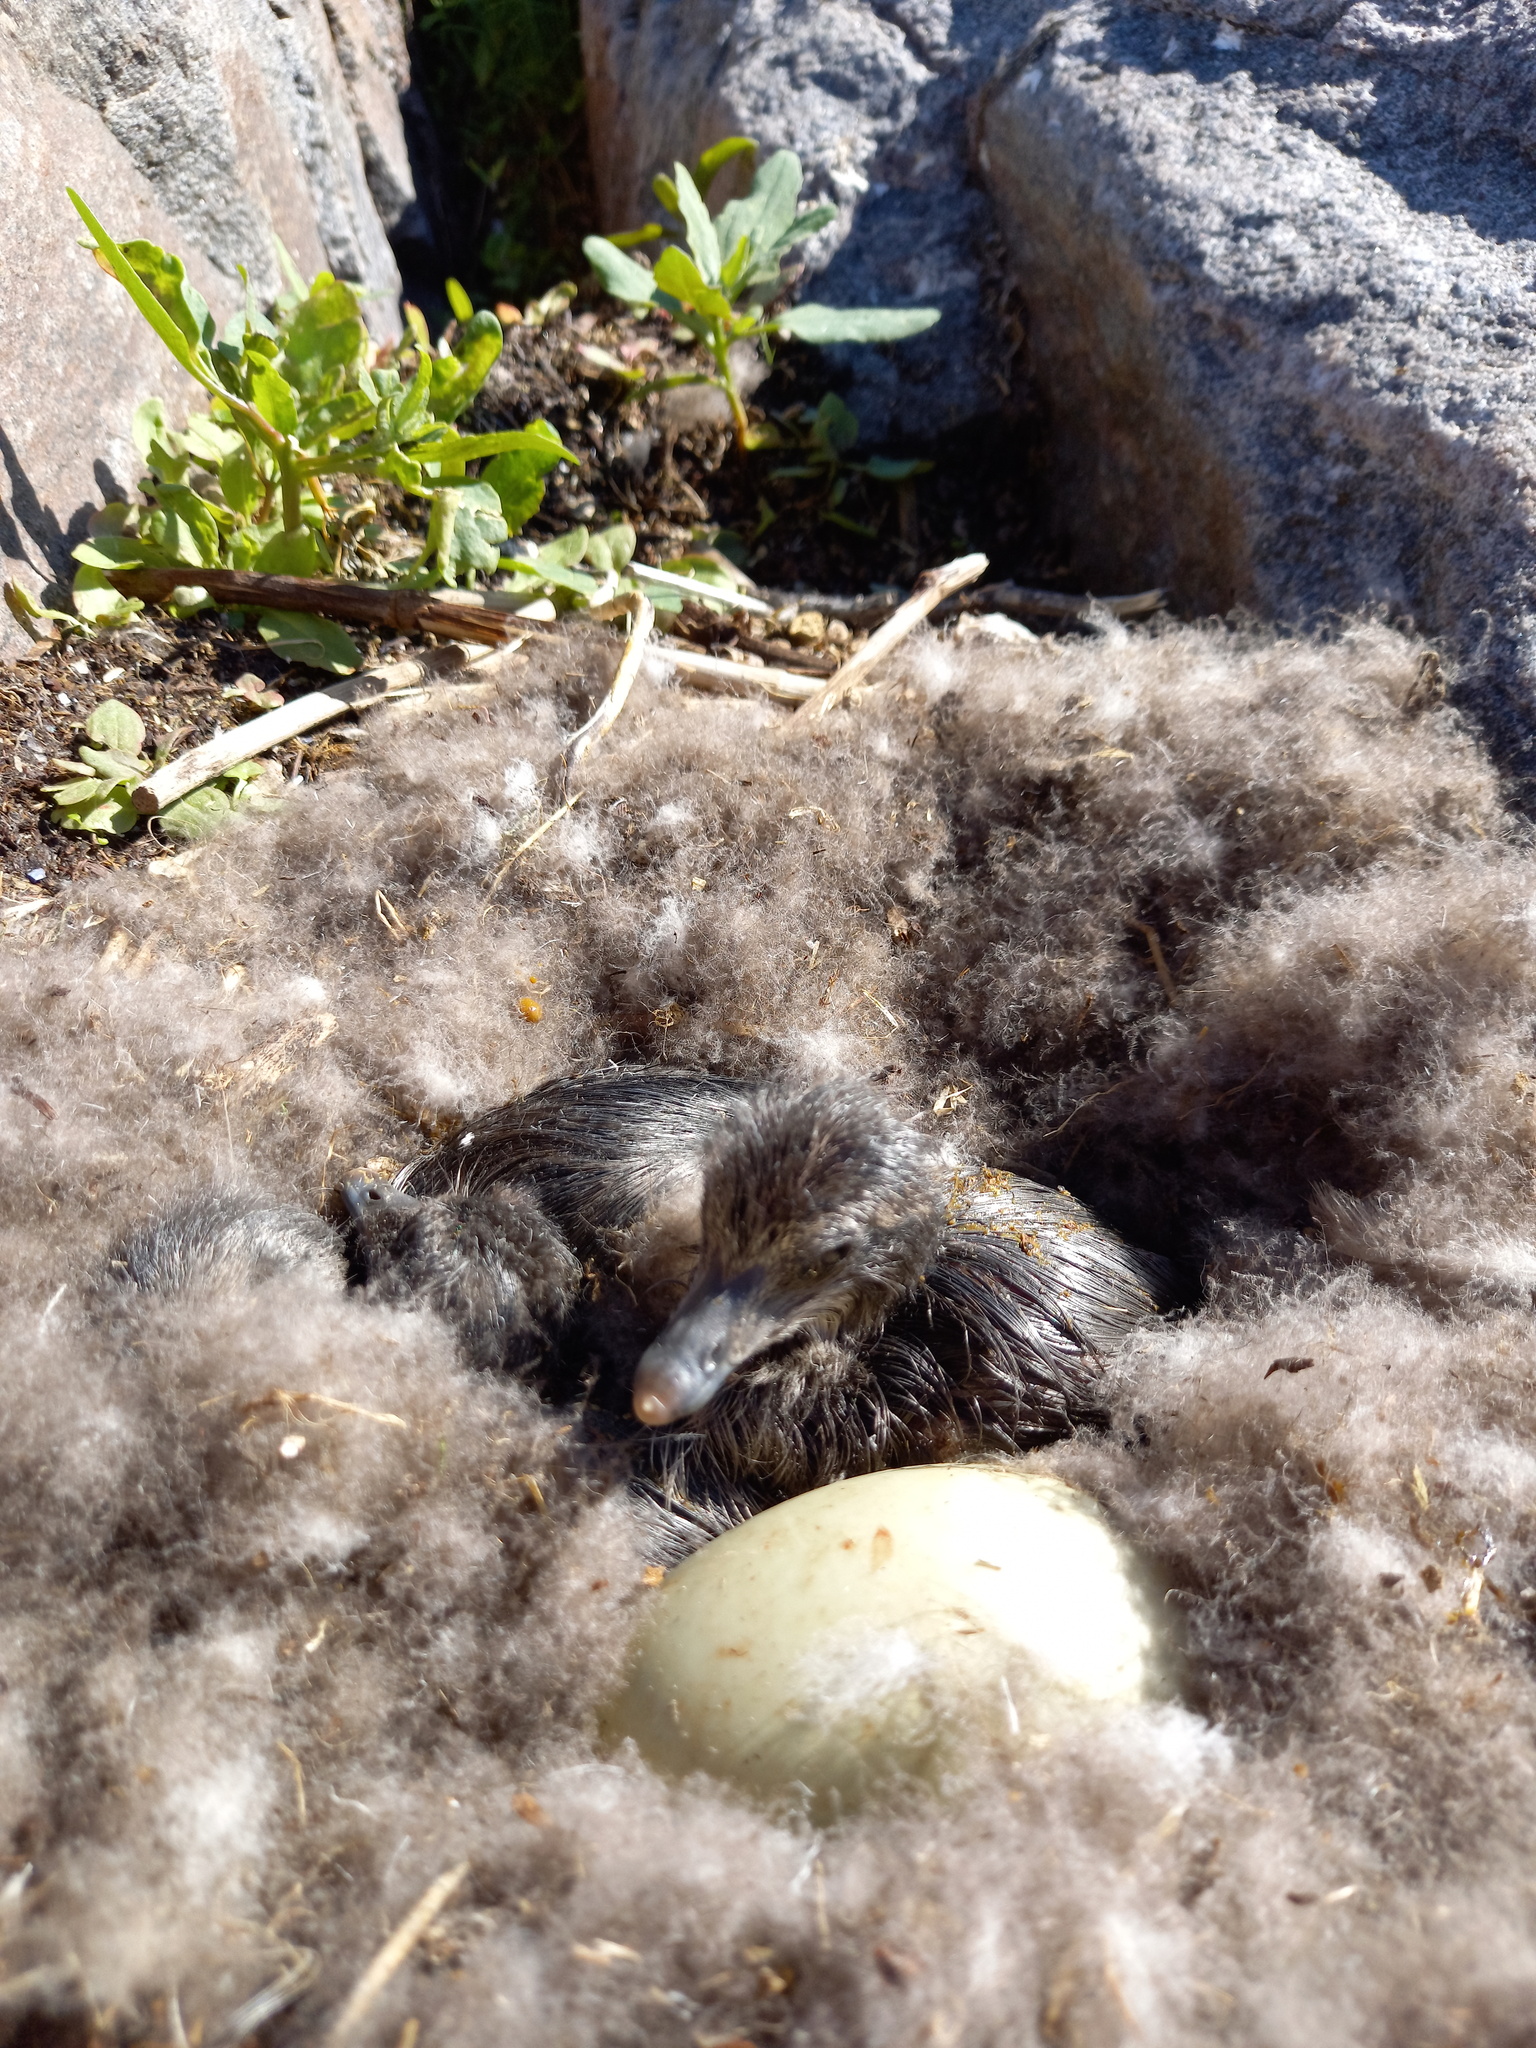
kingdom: Animalia
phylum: Chordata
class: Aves
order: Anseriformes
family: Anatidae
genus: Somateria
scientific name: Somateria mollissima
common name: Common eider
